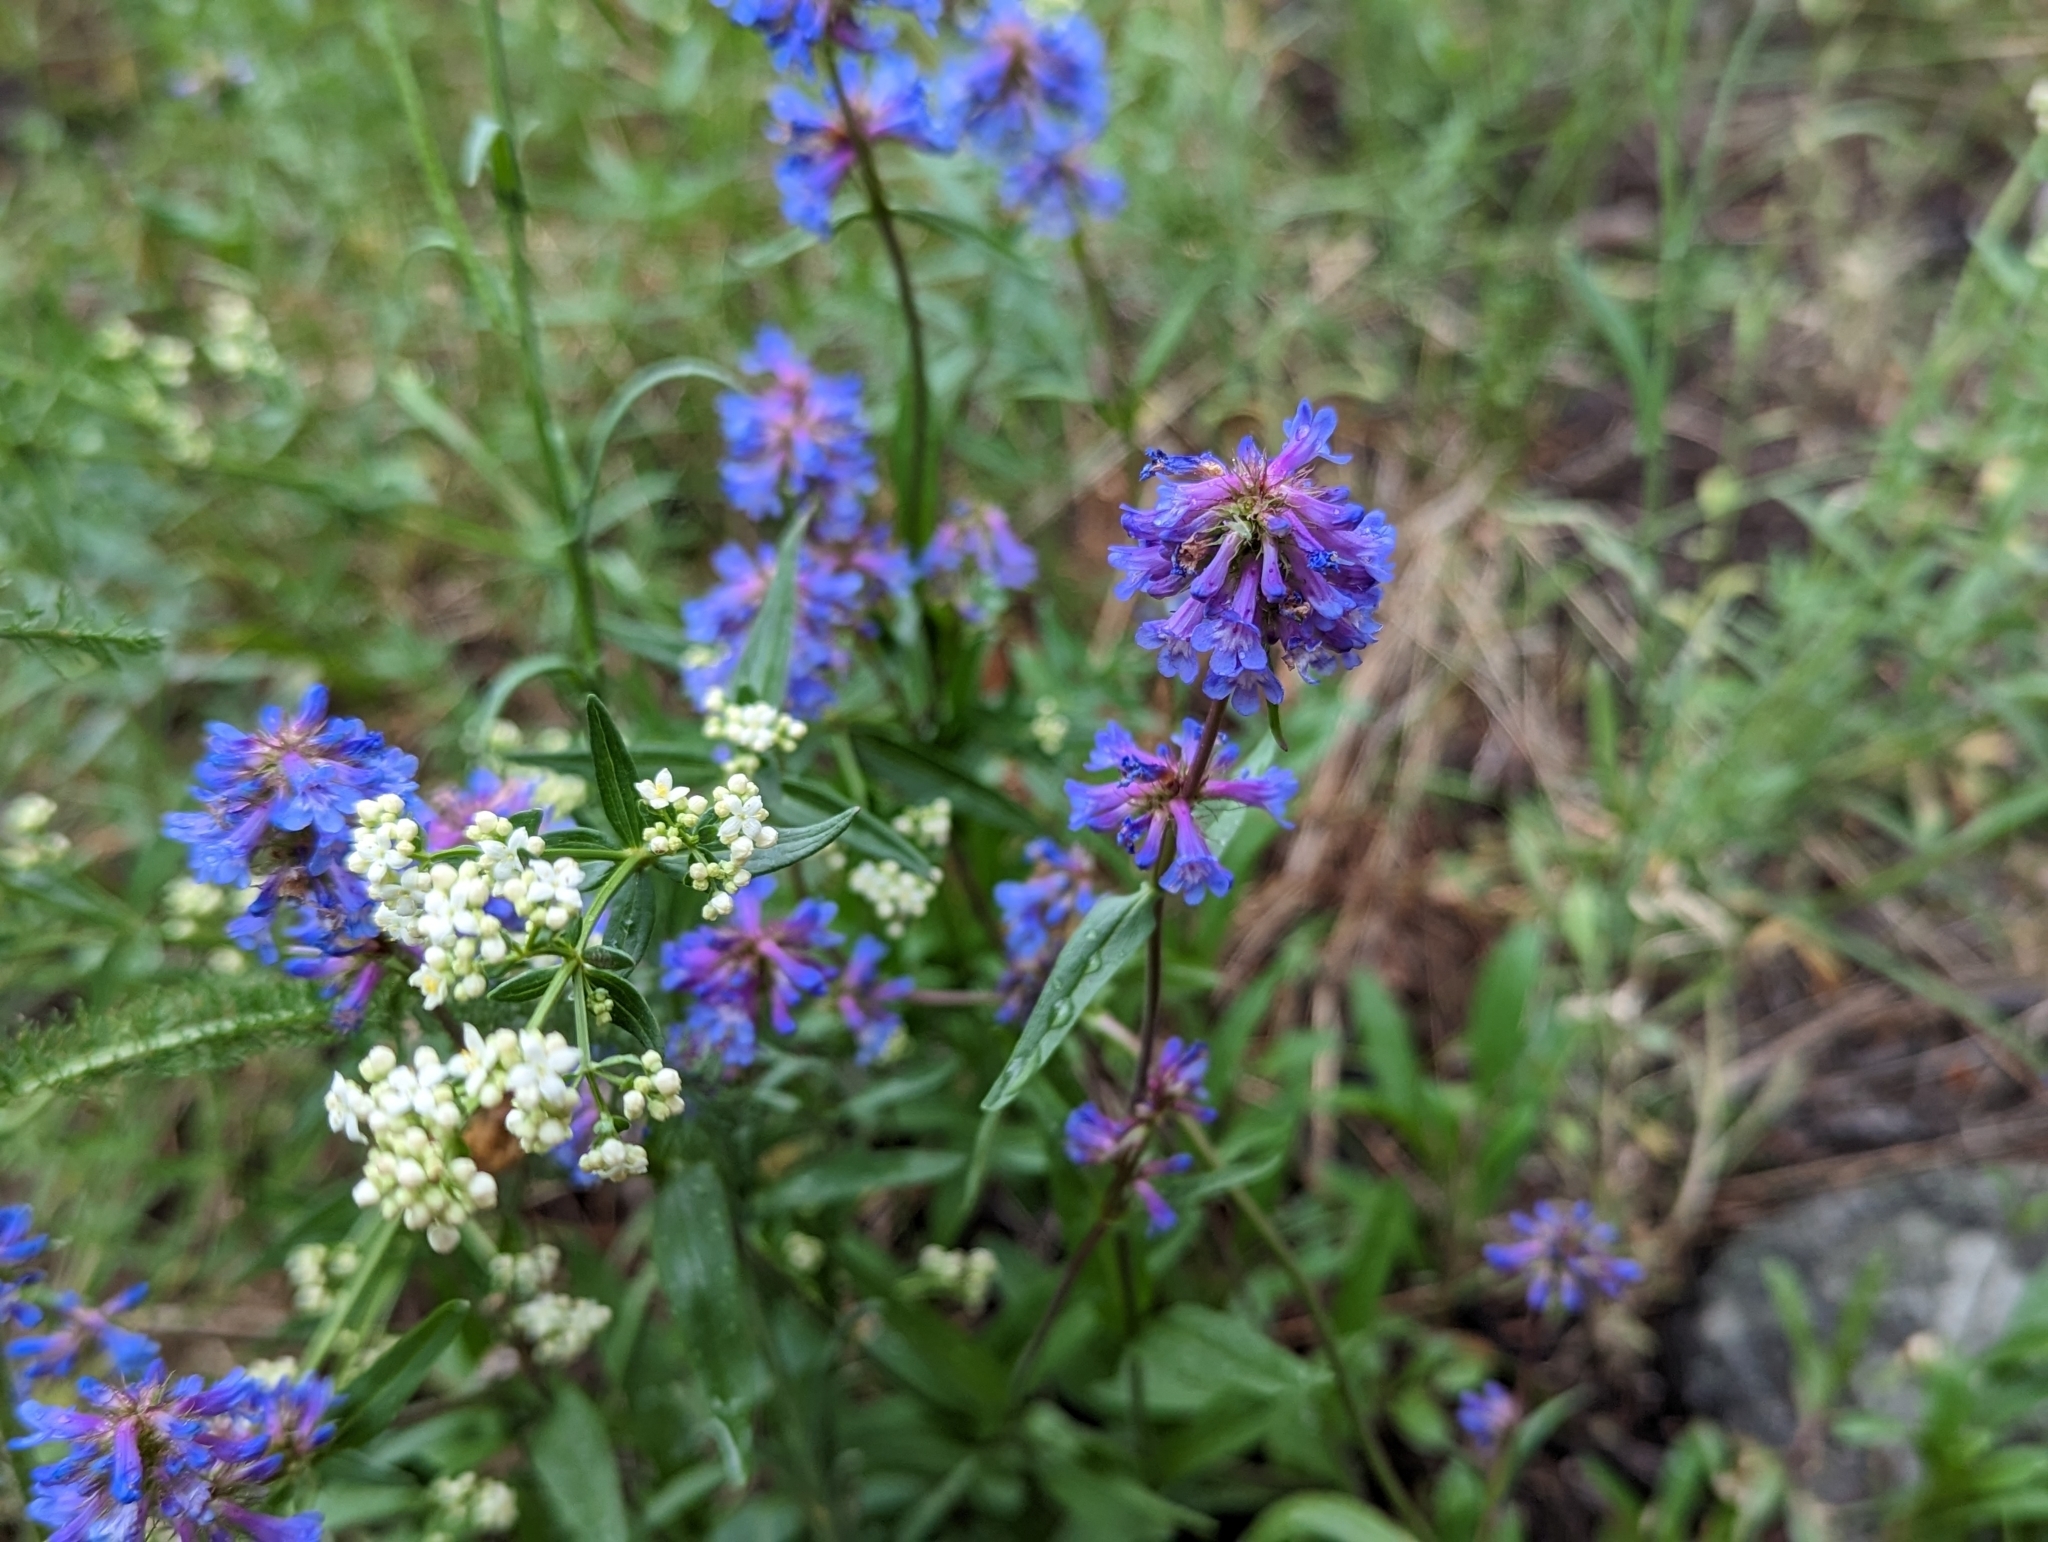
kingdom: Plantae
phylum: Tracheophyta
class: Magnoliopsida
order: Lamiales
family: Plantaginaceae
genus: Penstemon
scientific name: Penstemon procerus
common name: Small-flower penstemon
